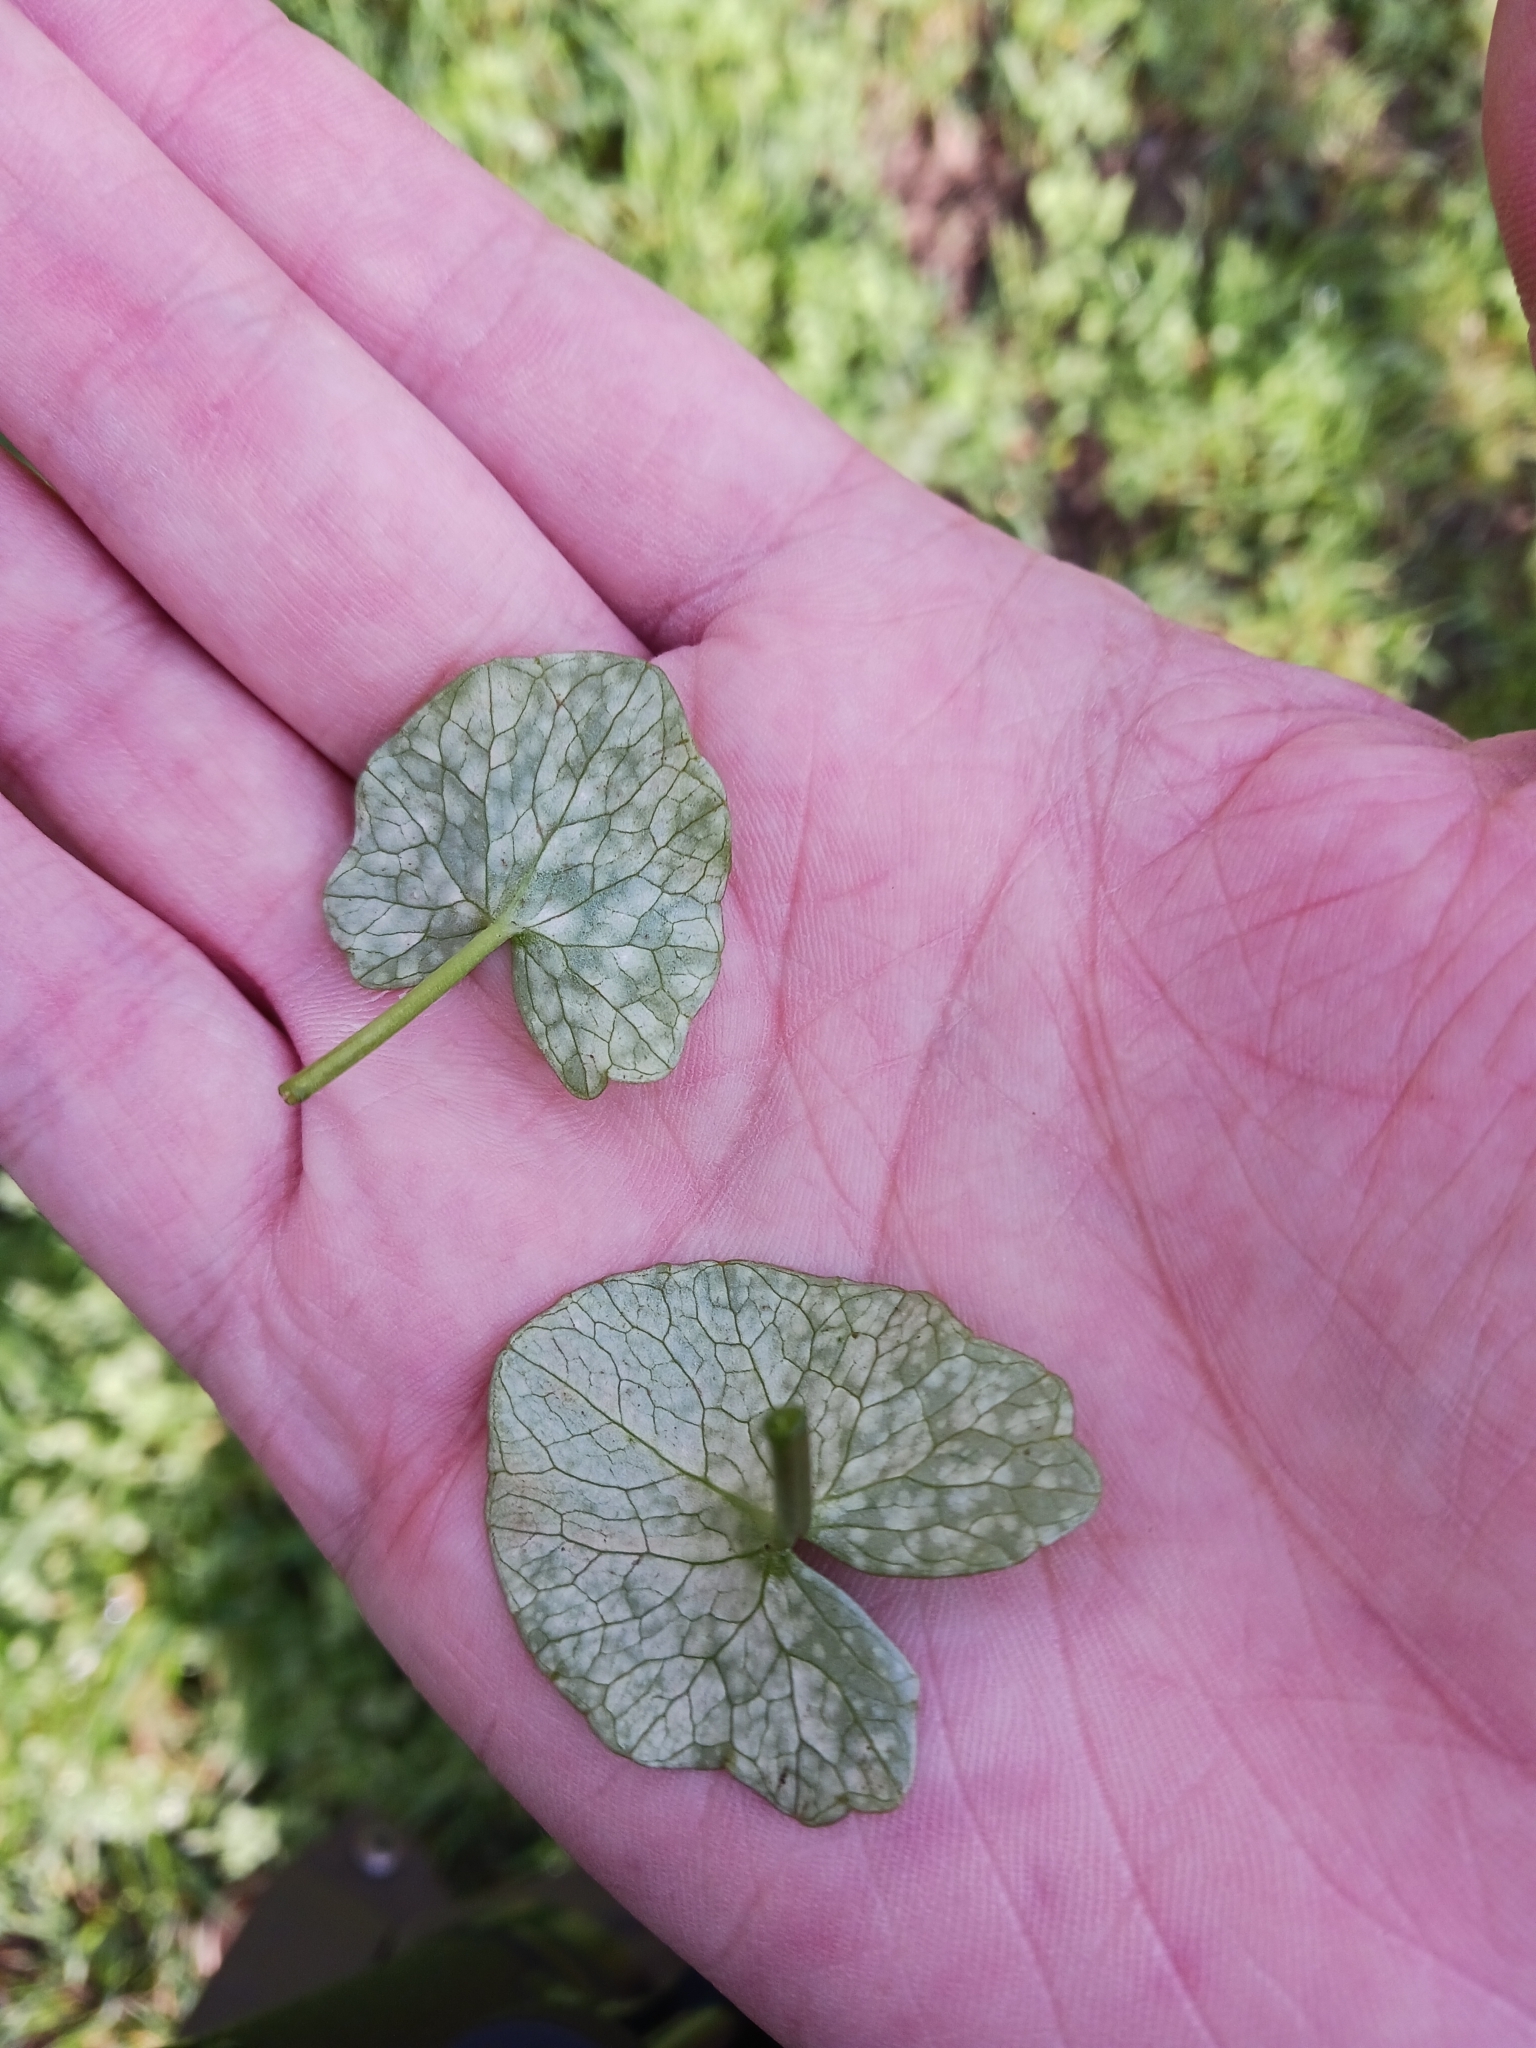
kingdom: Fungi
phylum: Basidiomycota
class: Exobasidiomycetes
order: Entylomatales
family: Entylomataceae
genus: Entyloma
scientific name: Entyloma ficariae
